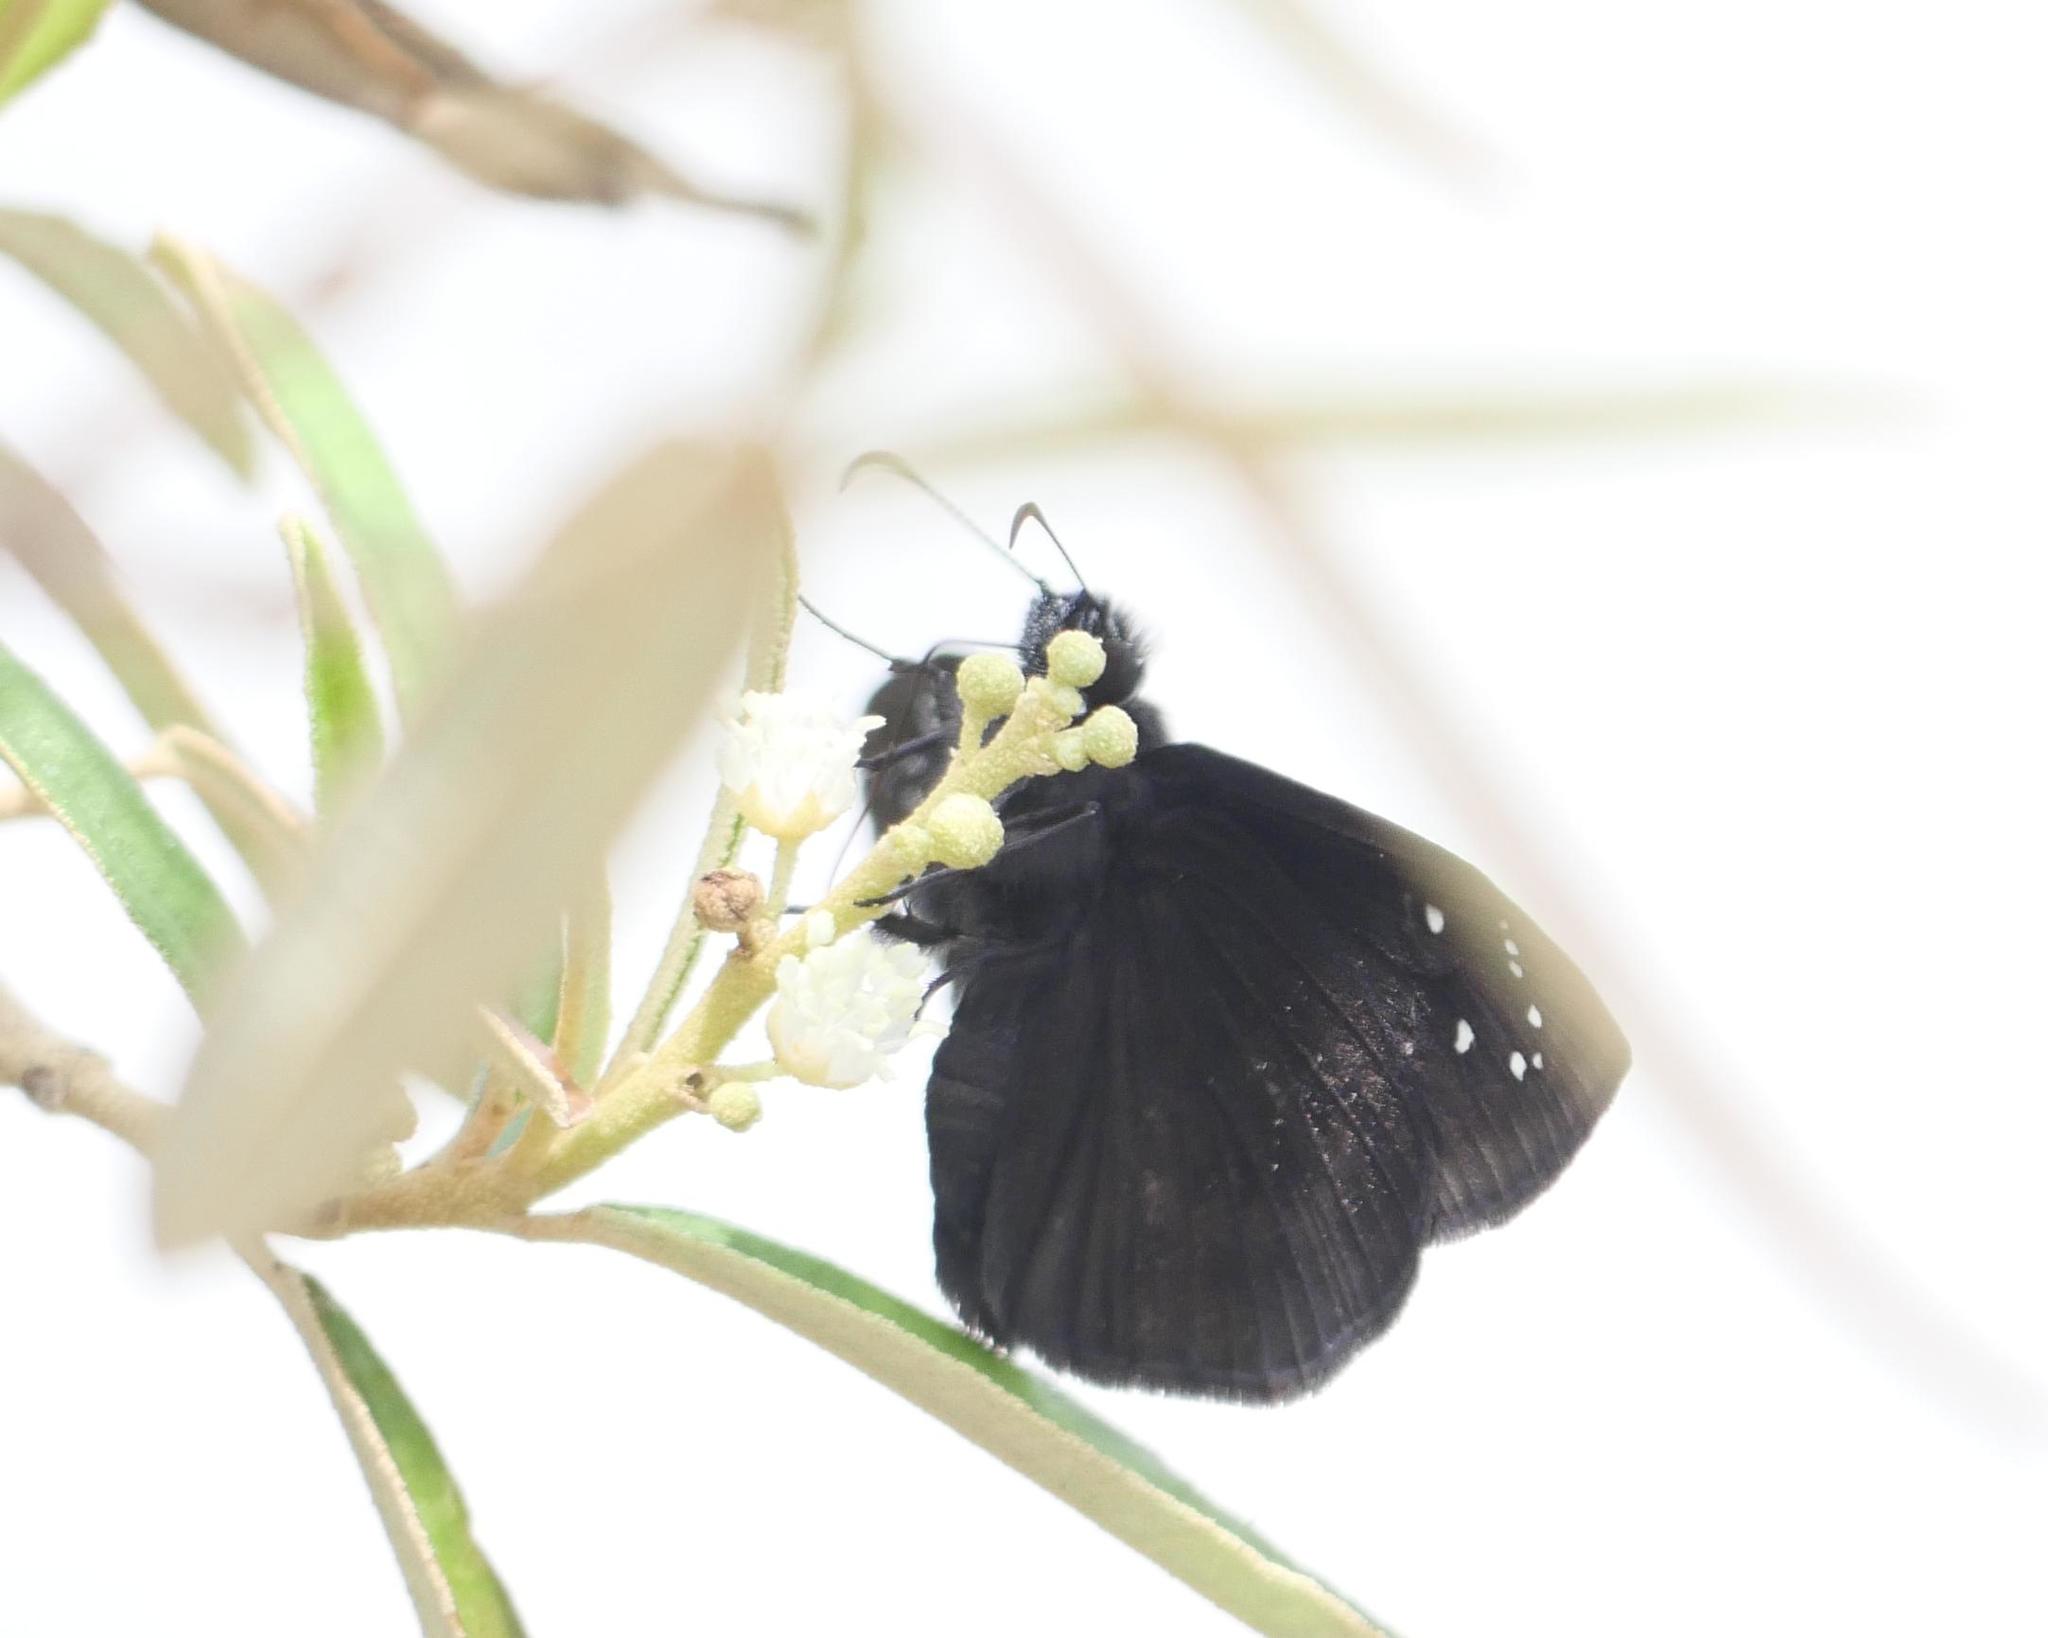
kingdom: Animalia
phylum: Arthropoda
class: Insecta
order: Lepidoptera
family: Hesperiidae
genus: Ephyriades
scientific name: Ephyriades brunnea
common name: Florida duskywing
